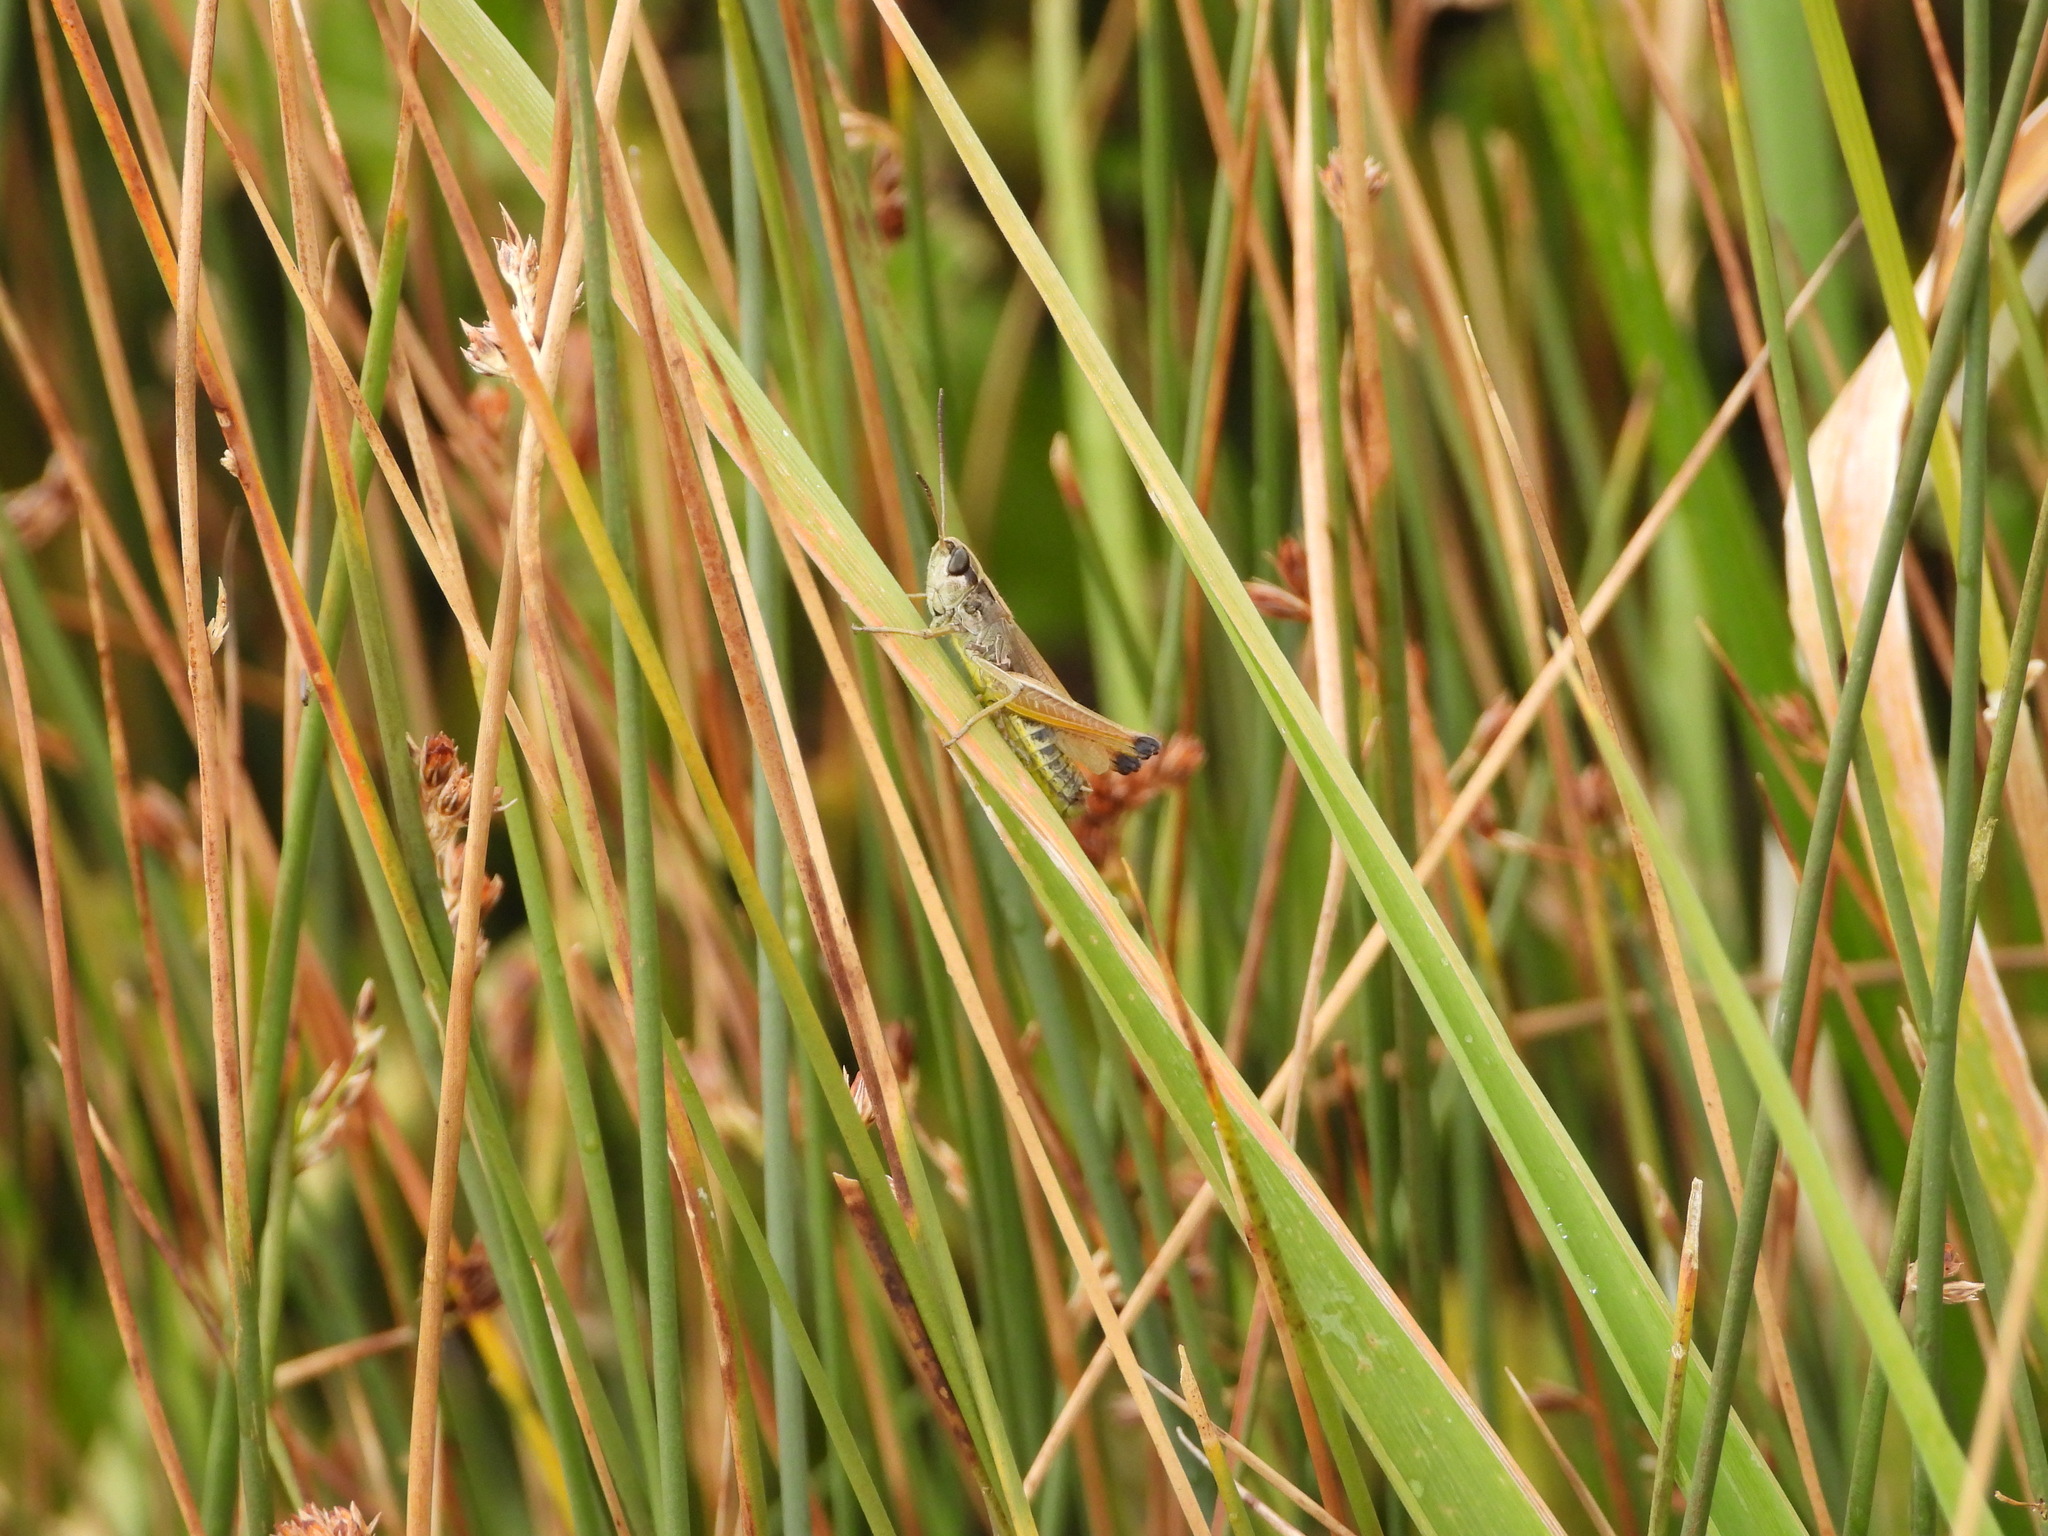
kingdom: Animalia
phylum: Arthropoda
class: Insecta
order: Orthoptera
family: Acrididae
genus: Pseudochorthippus
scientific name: Pseudochorthippus curtipennis
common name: Marsh meadow grasshopper
